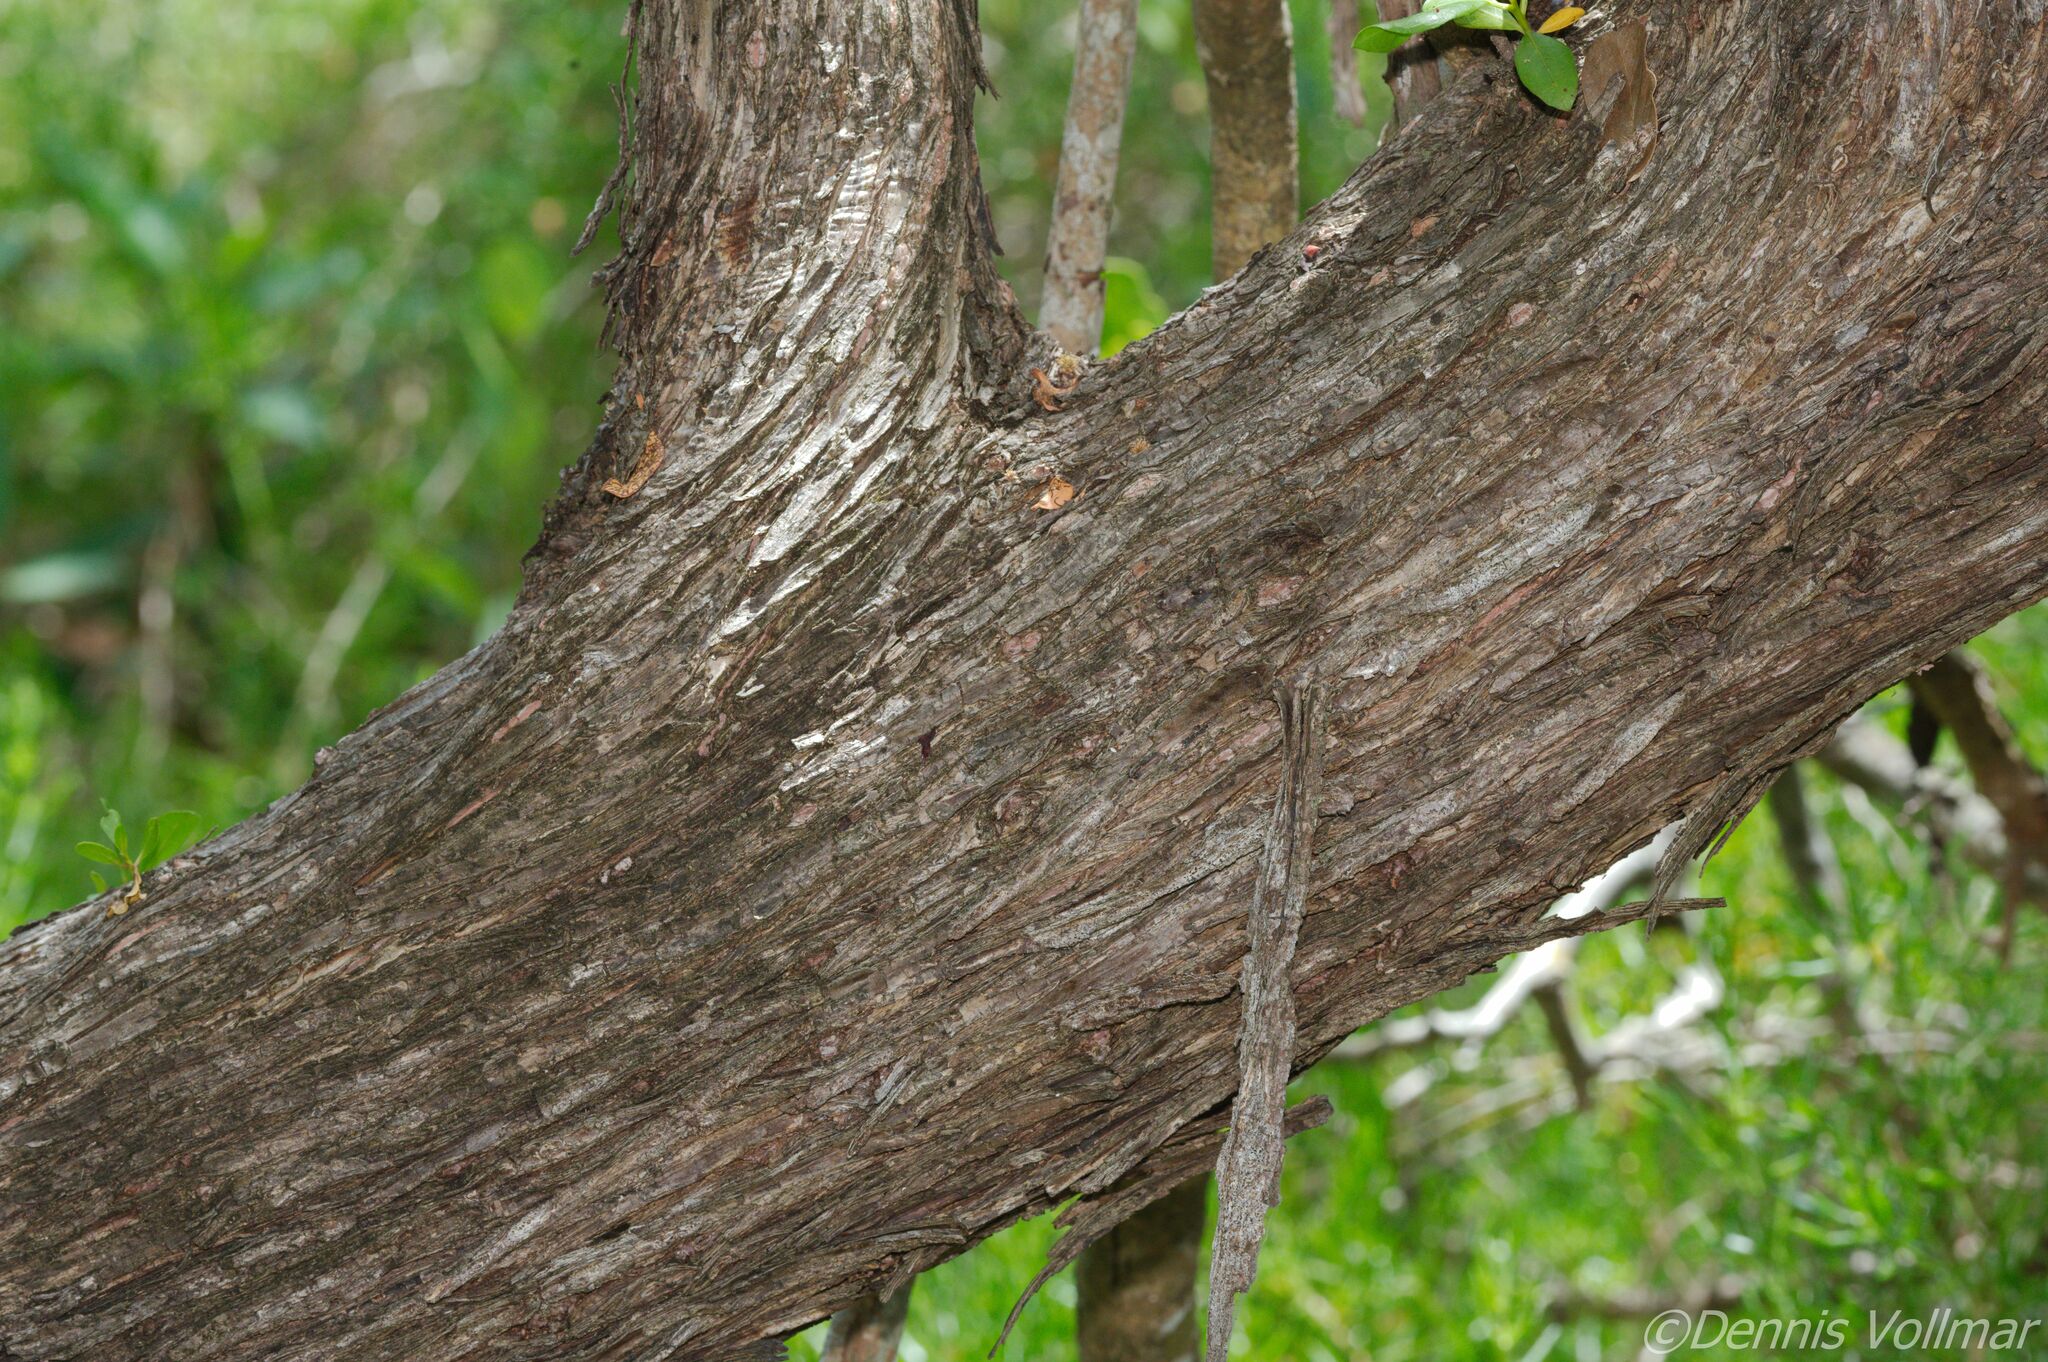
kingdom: Plantae
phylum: Tracheophyta
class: Magnoliopsida
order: Myrtales
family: Combretaceae
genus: Conocarpus
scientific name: Conocarpus erectus
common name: Button mangrove
